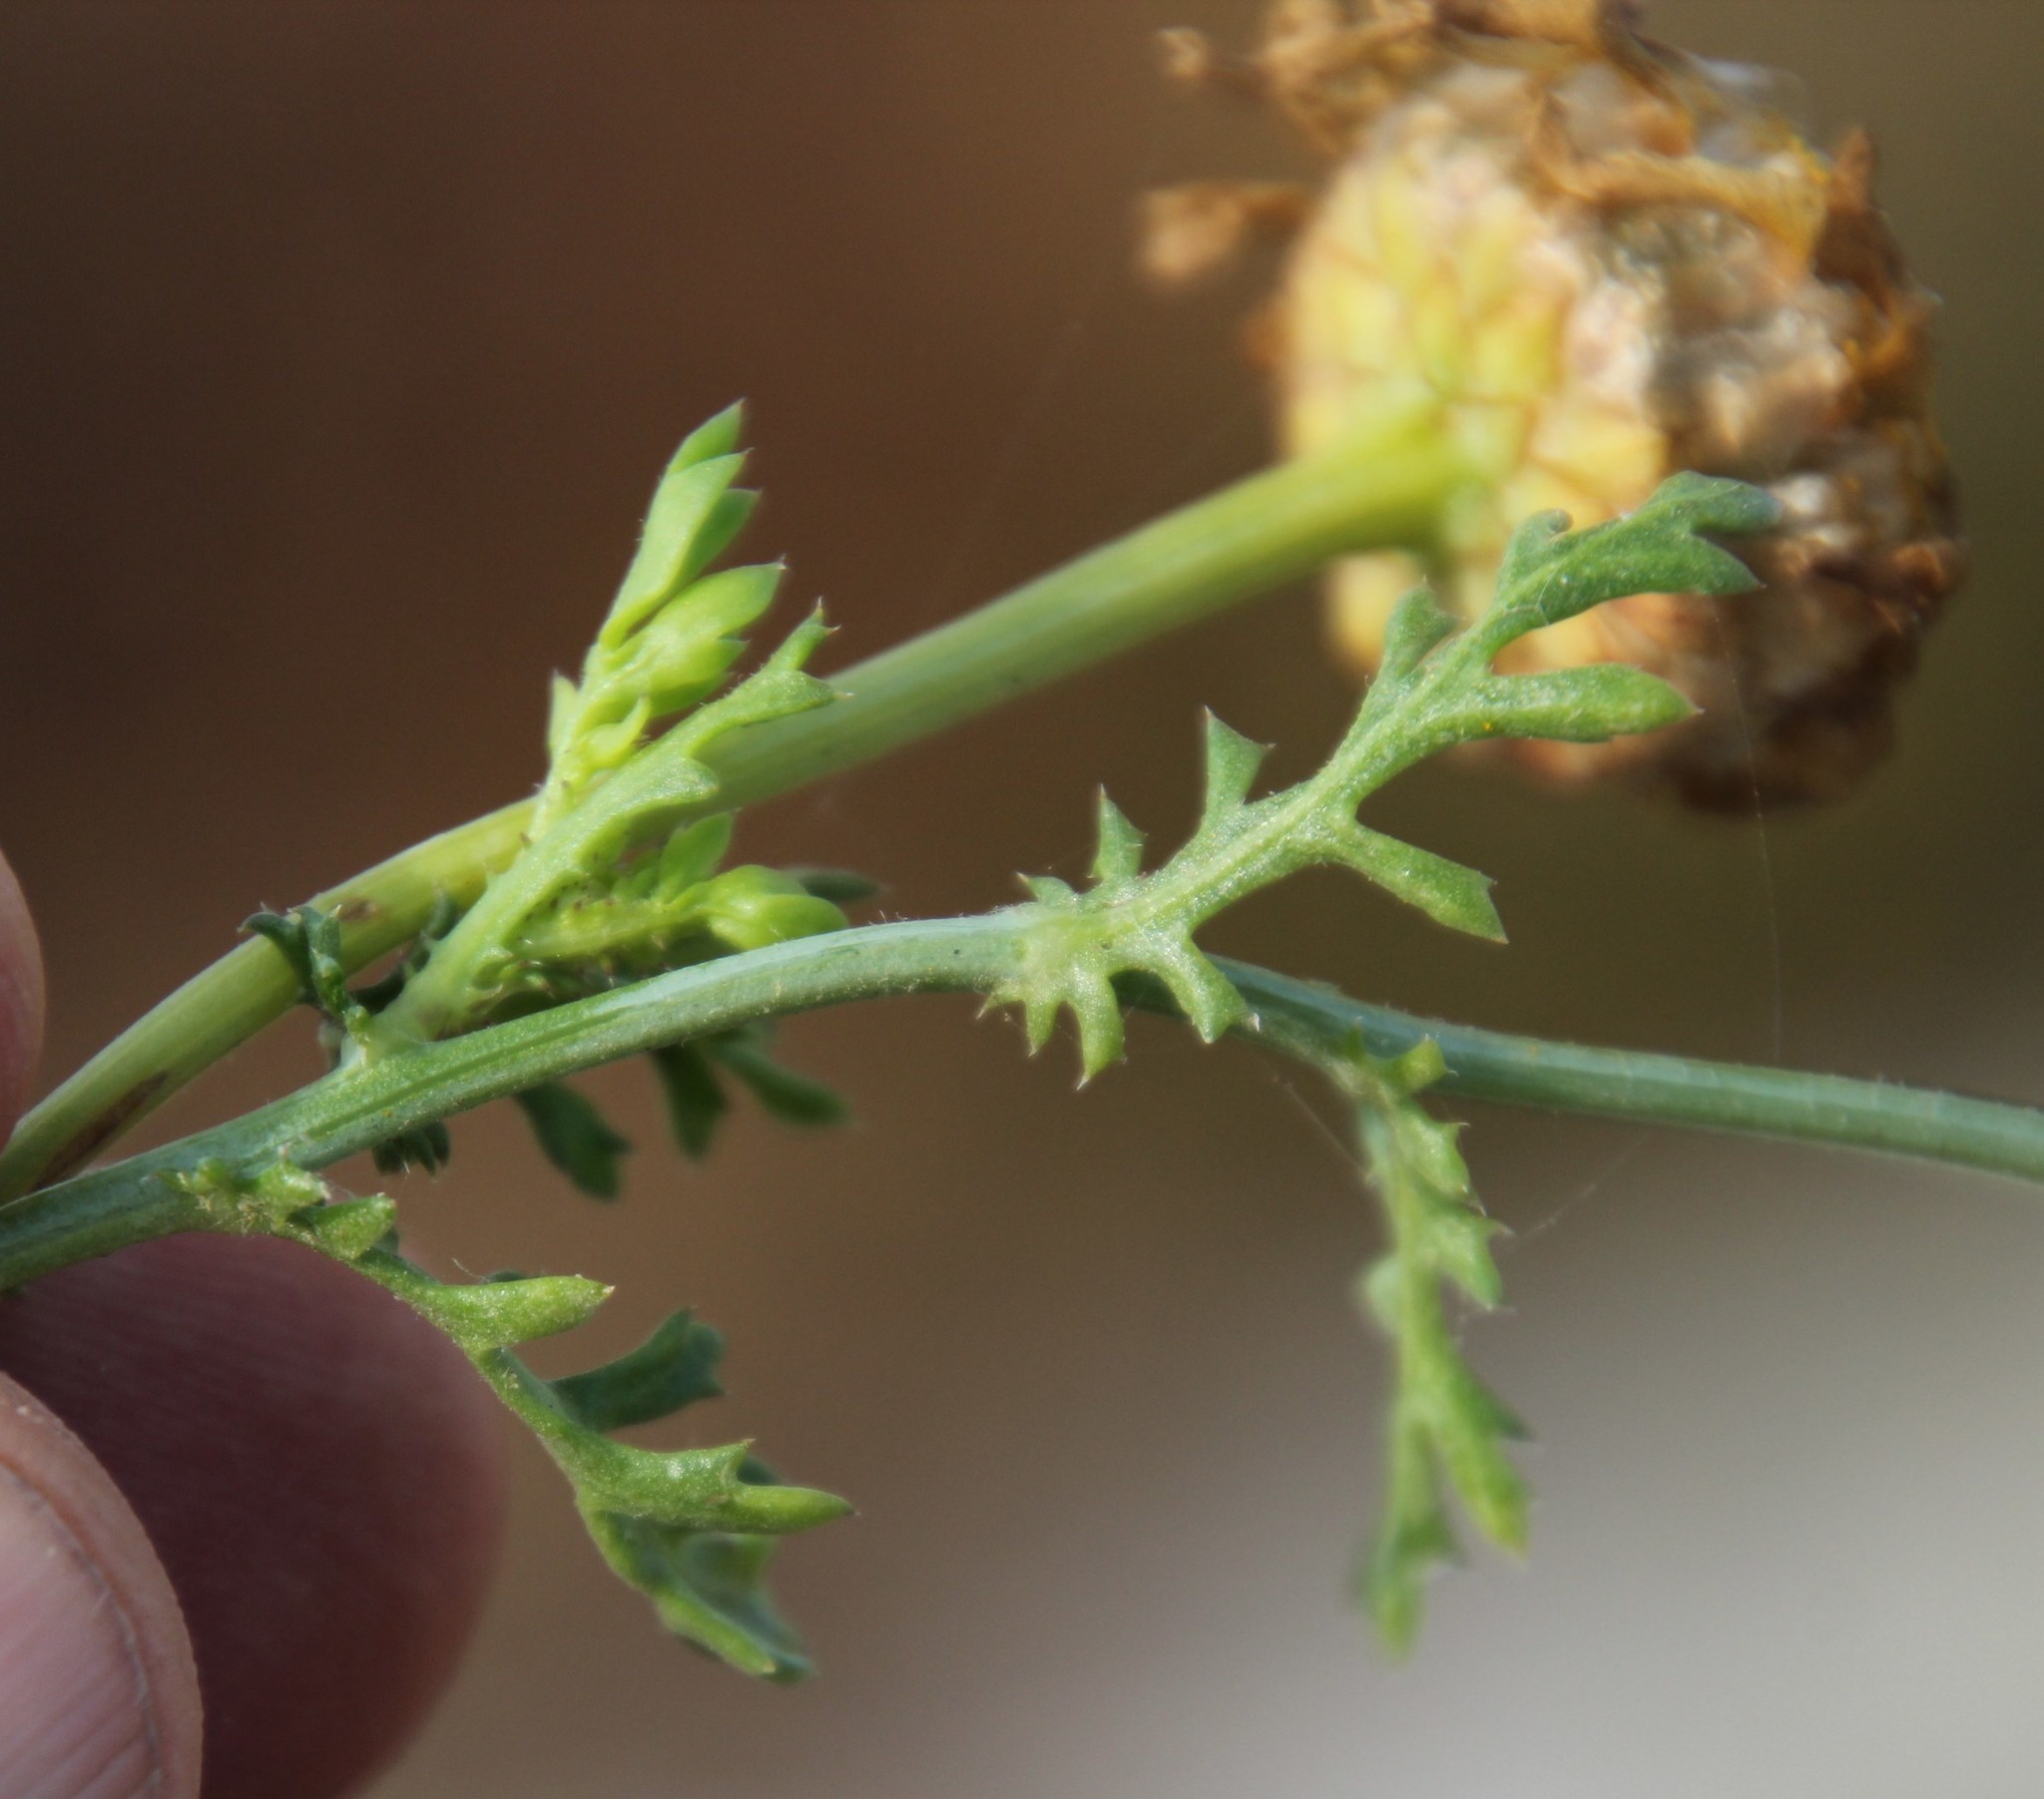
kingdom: Plantae
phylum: Tracheophyta
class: Magnoliopsida
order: Asterales
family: Asteraceae
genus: Glebionis
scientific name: Glebionis coronaria
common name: Crowndaisy
